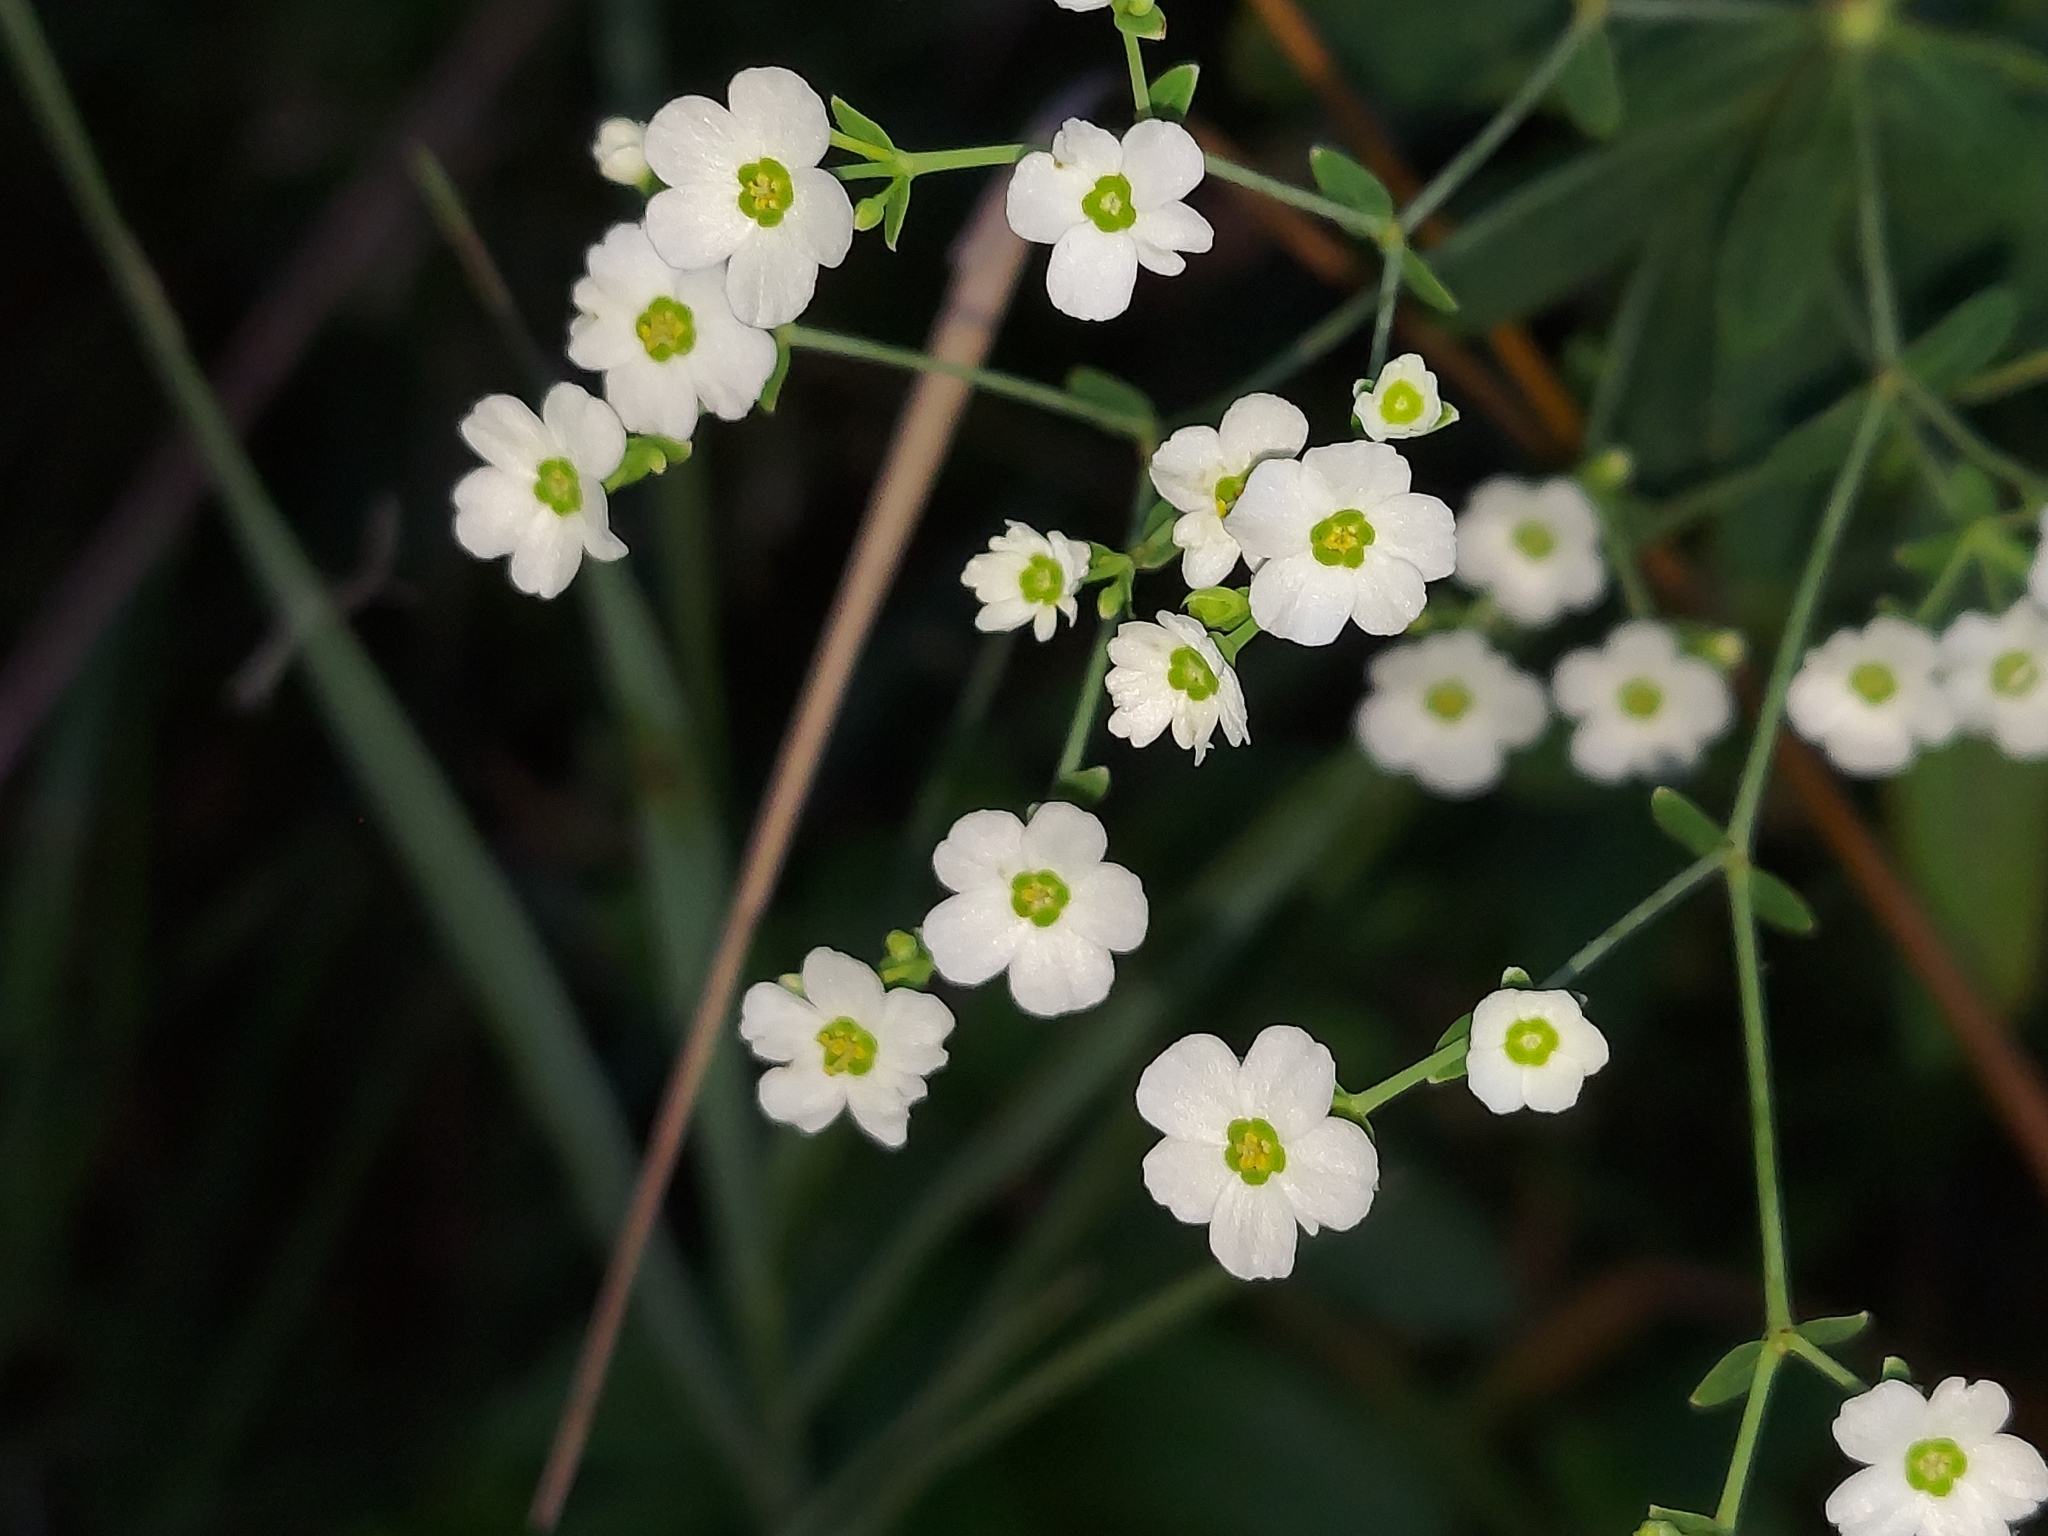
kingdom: Plantae
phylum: Tracheophyta
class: Magnoliopsida
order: Malpighiales
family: Euphorbiaceae
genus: Euphorbia
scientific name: Euphorbia corollata
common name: Flowering spurge
